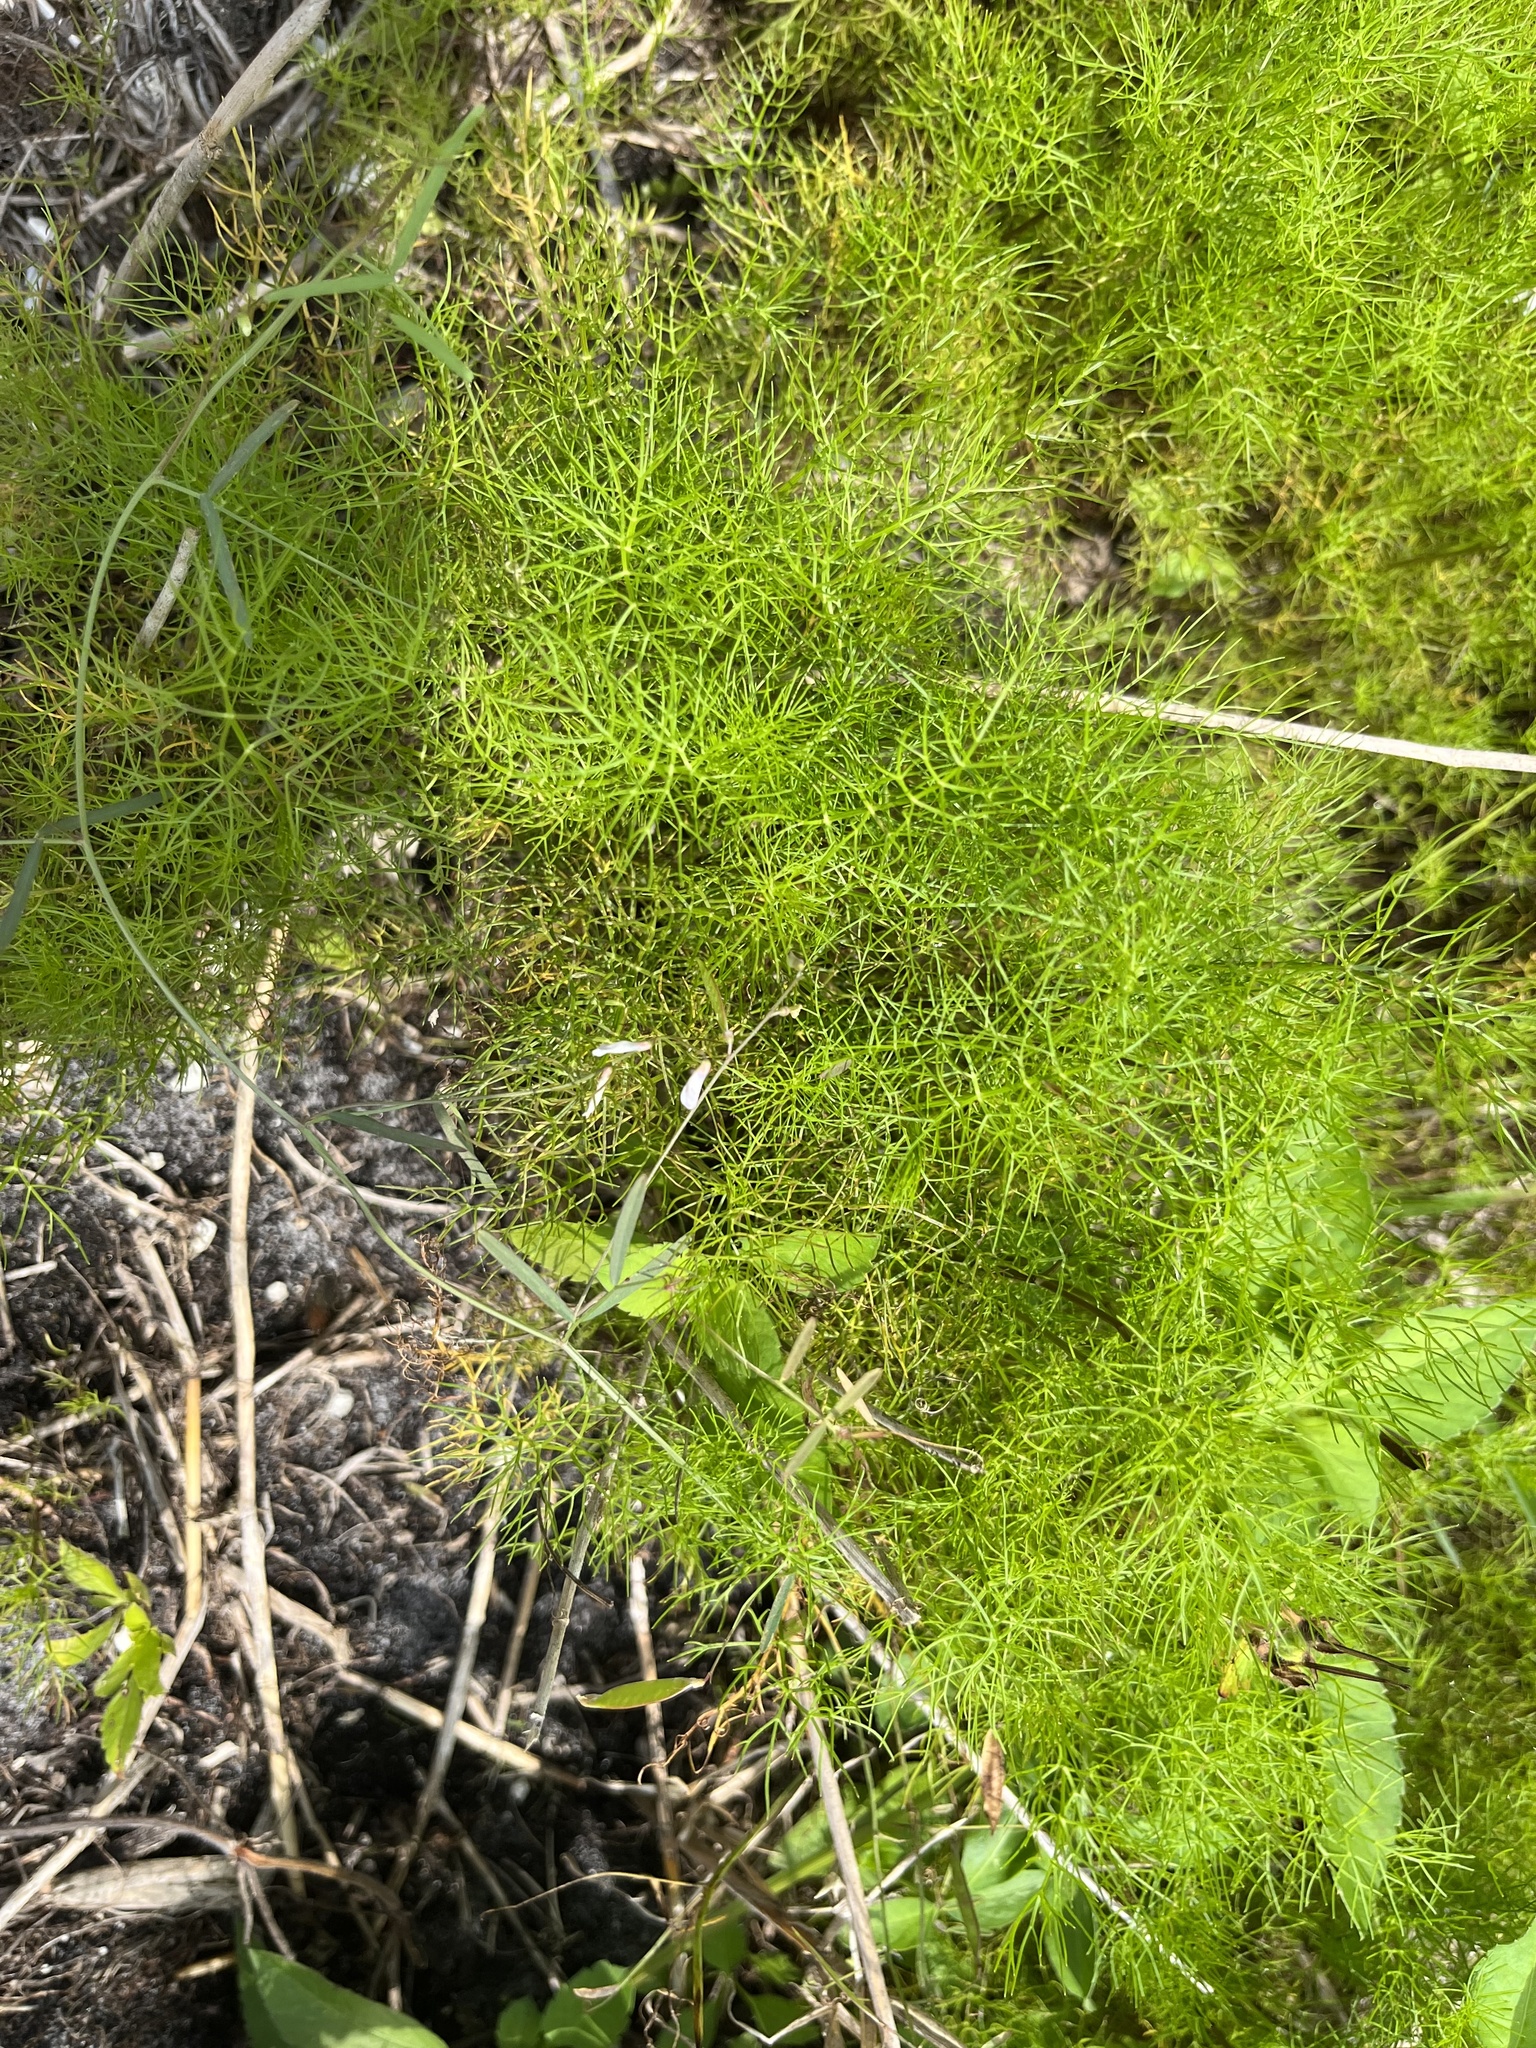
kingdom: Plantae
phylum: Tracheophyta
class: Magnoliopsida
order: Apiales
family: Apiaceae
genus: Ptilimnium
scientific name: Ptilimnium capillaceum
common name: Herbwilliam
